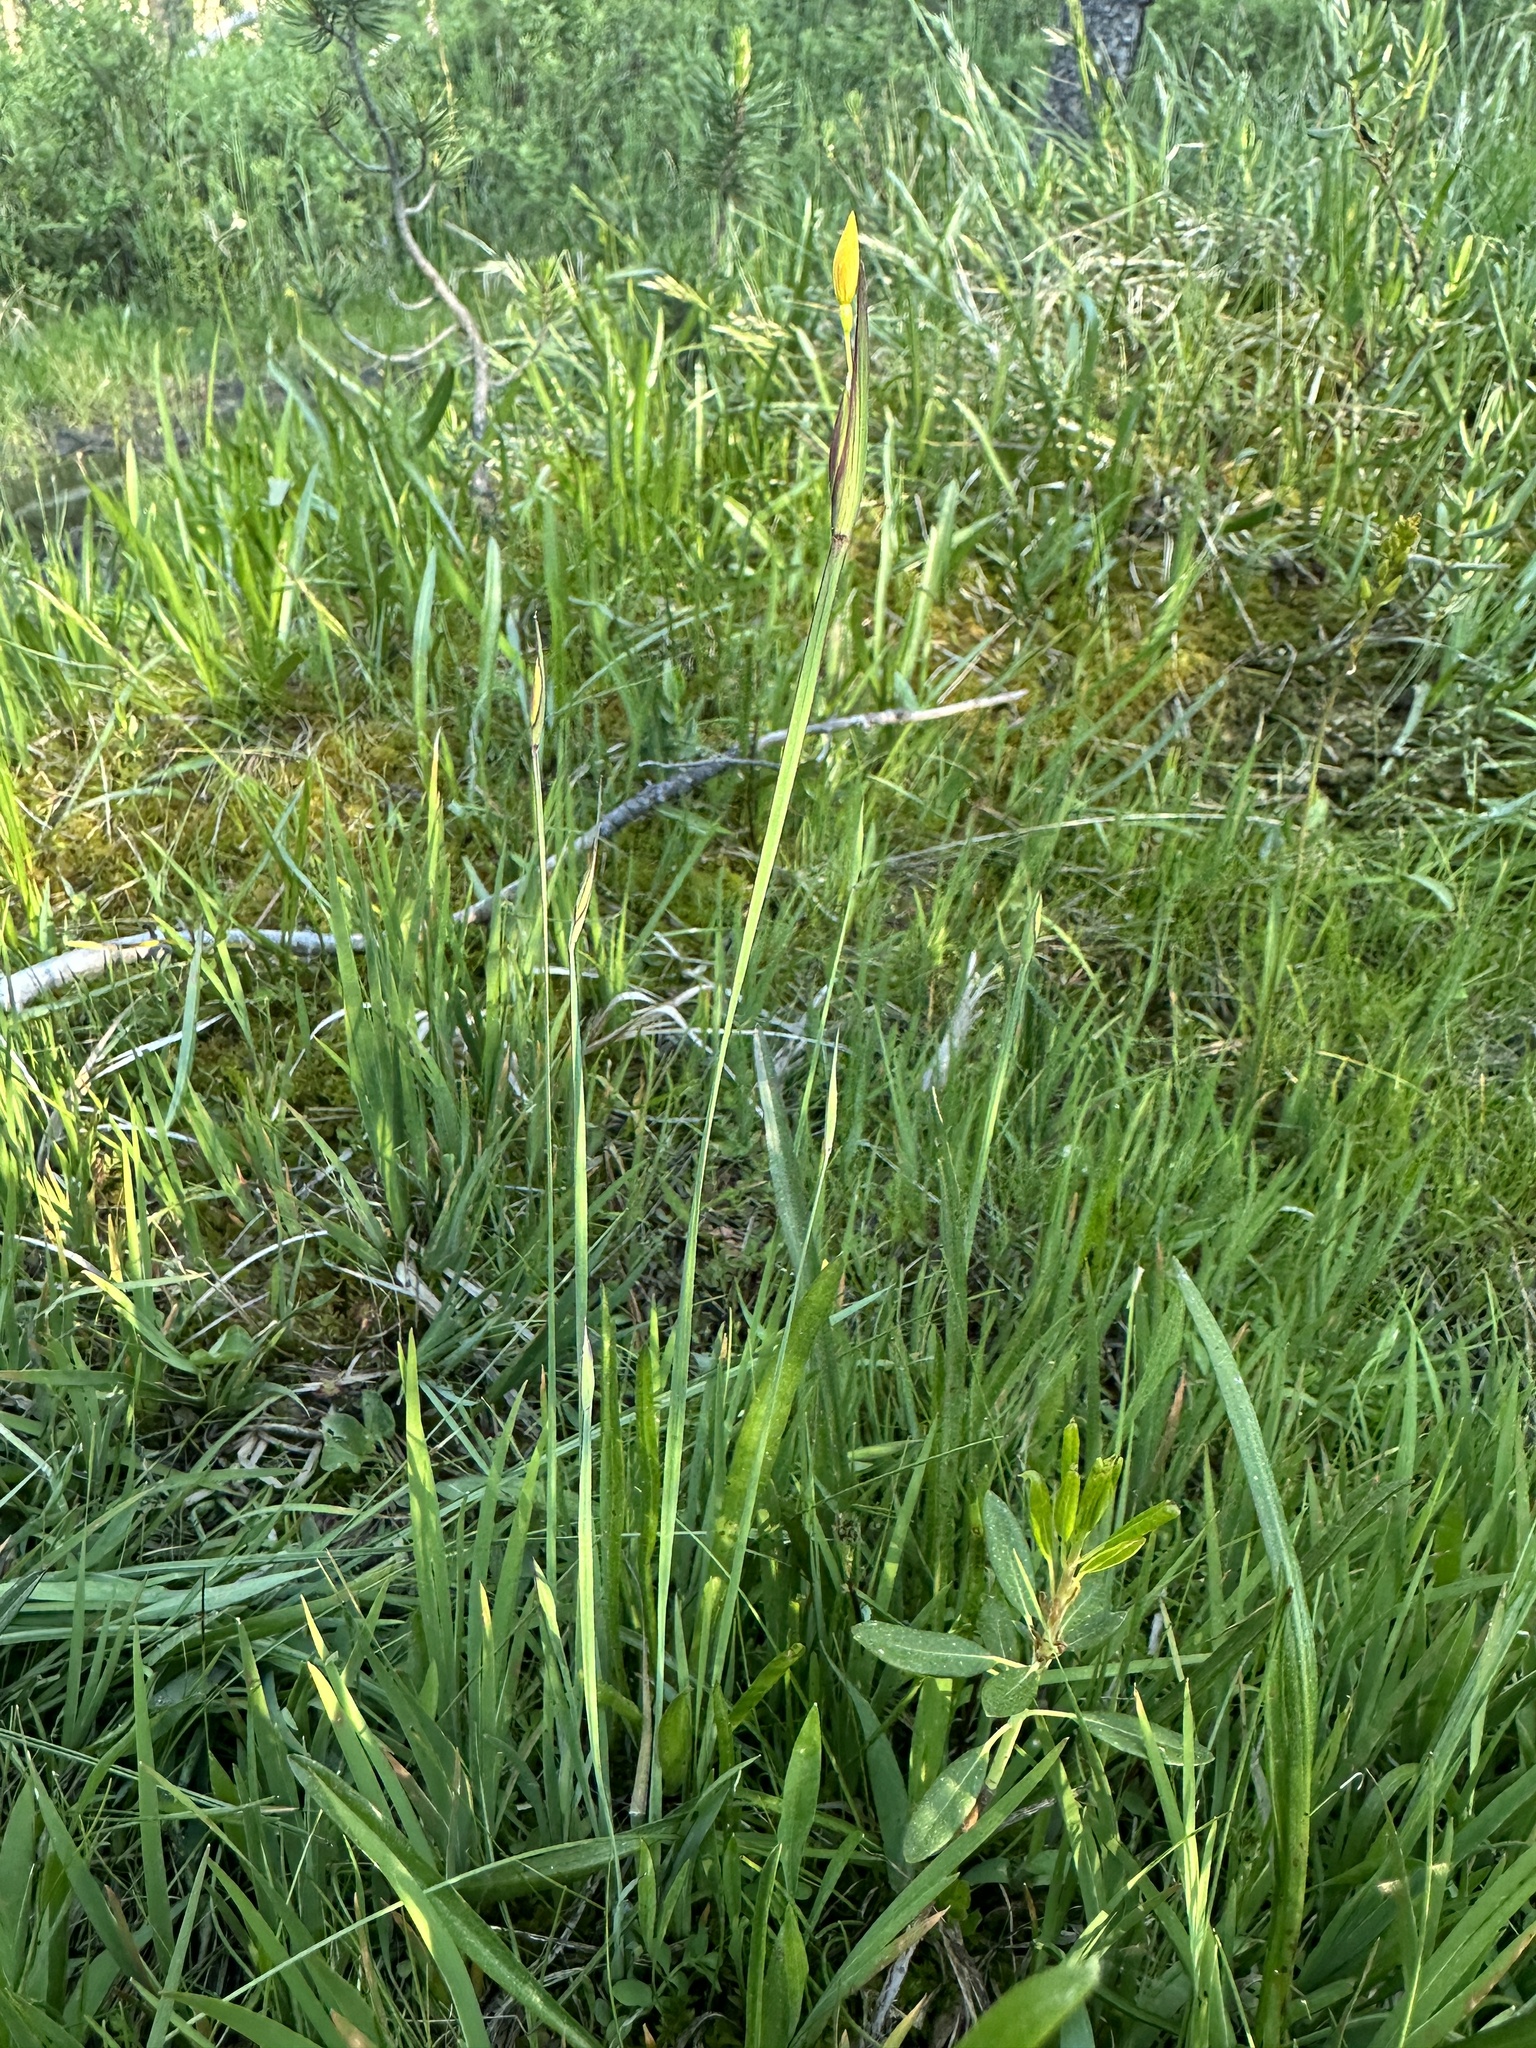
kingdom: Plantae
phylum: Tracheophyta
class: Liliopsida
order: Asparagales
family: Iridaceae
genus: Sisyrinchium
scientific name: Sisyrinchium elmeri
